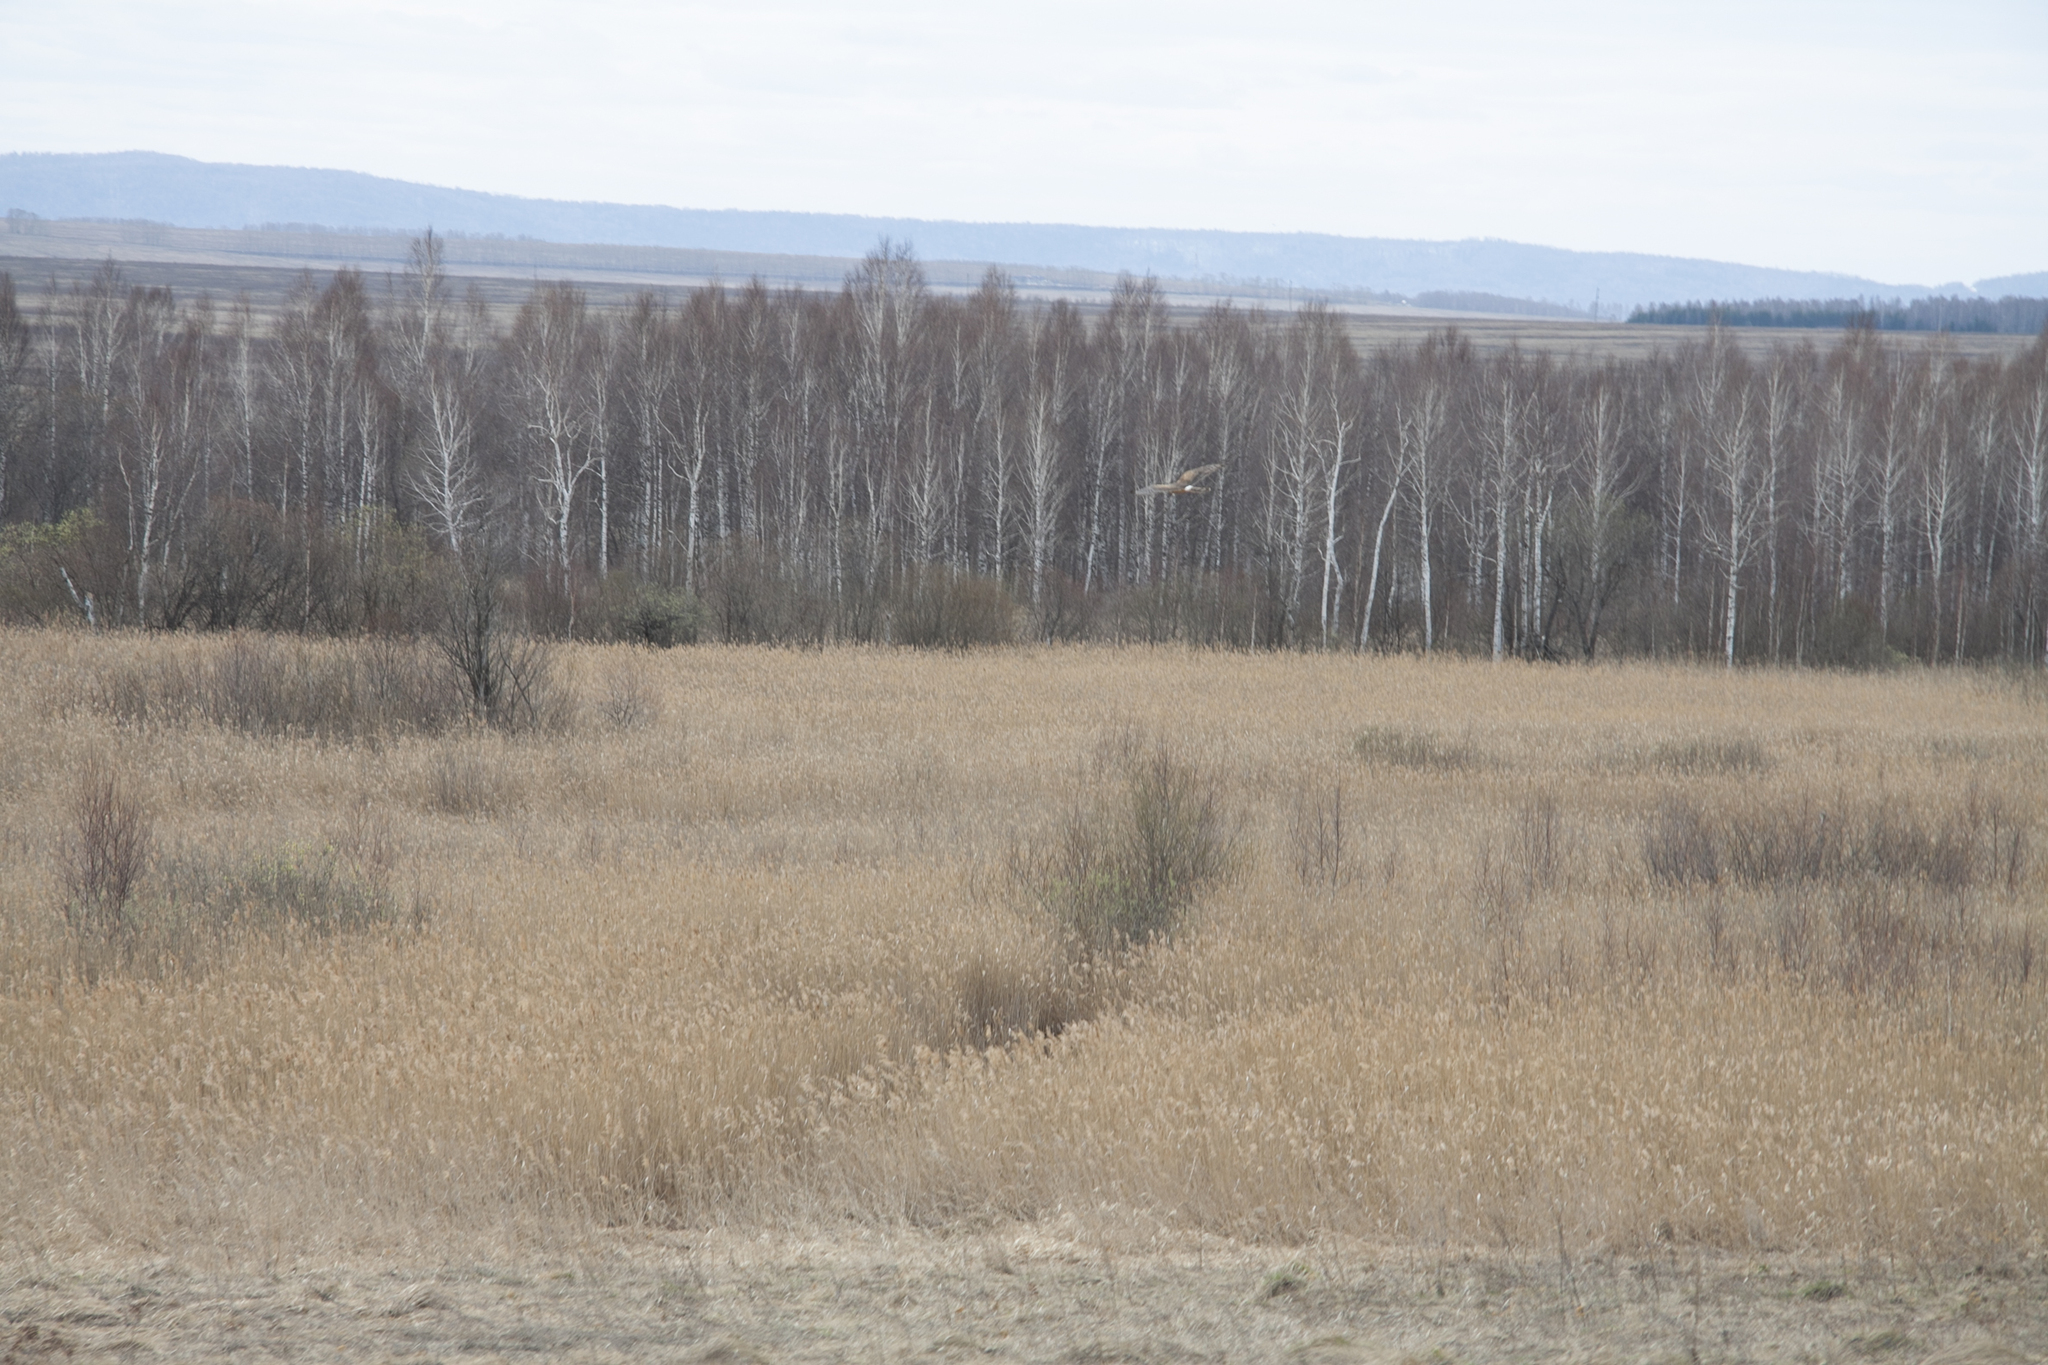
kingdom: Animalia
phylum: Chordata
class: Aves
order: Accipitriformes
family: Accipitridae
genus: Circus
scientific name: Circus cyaneus
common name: Hen harrier
